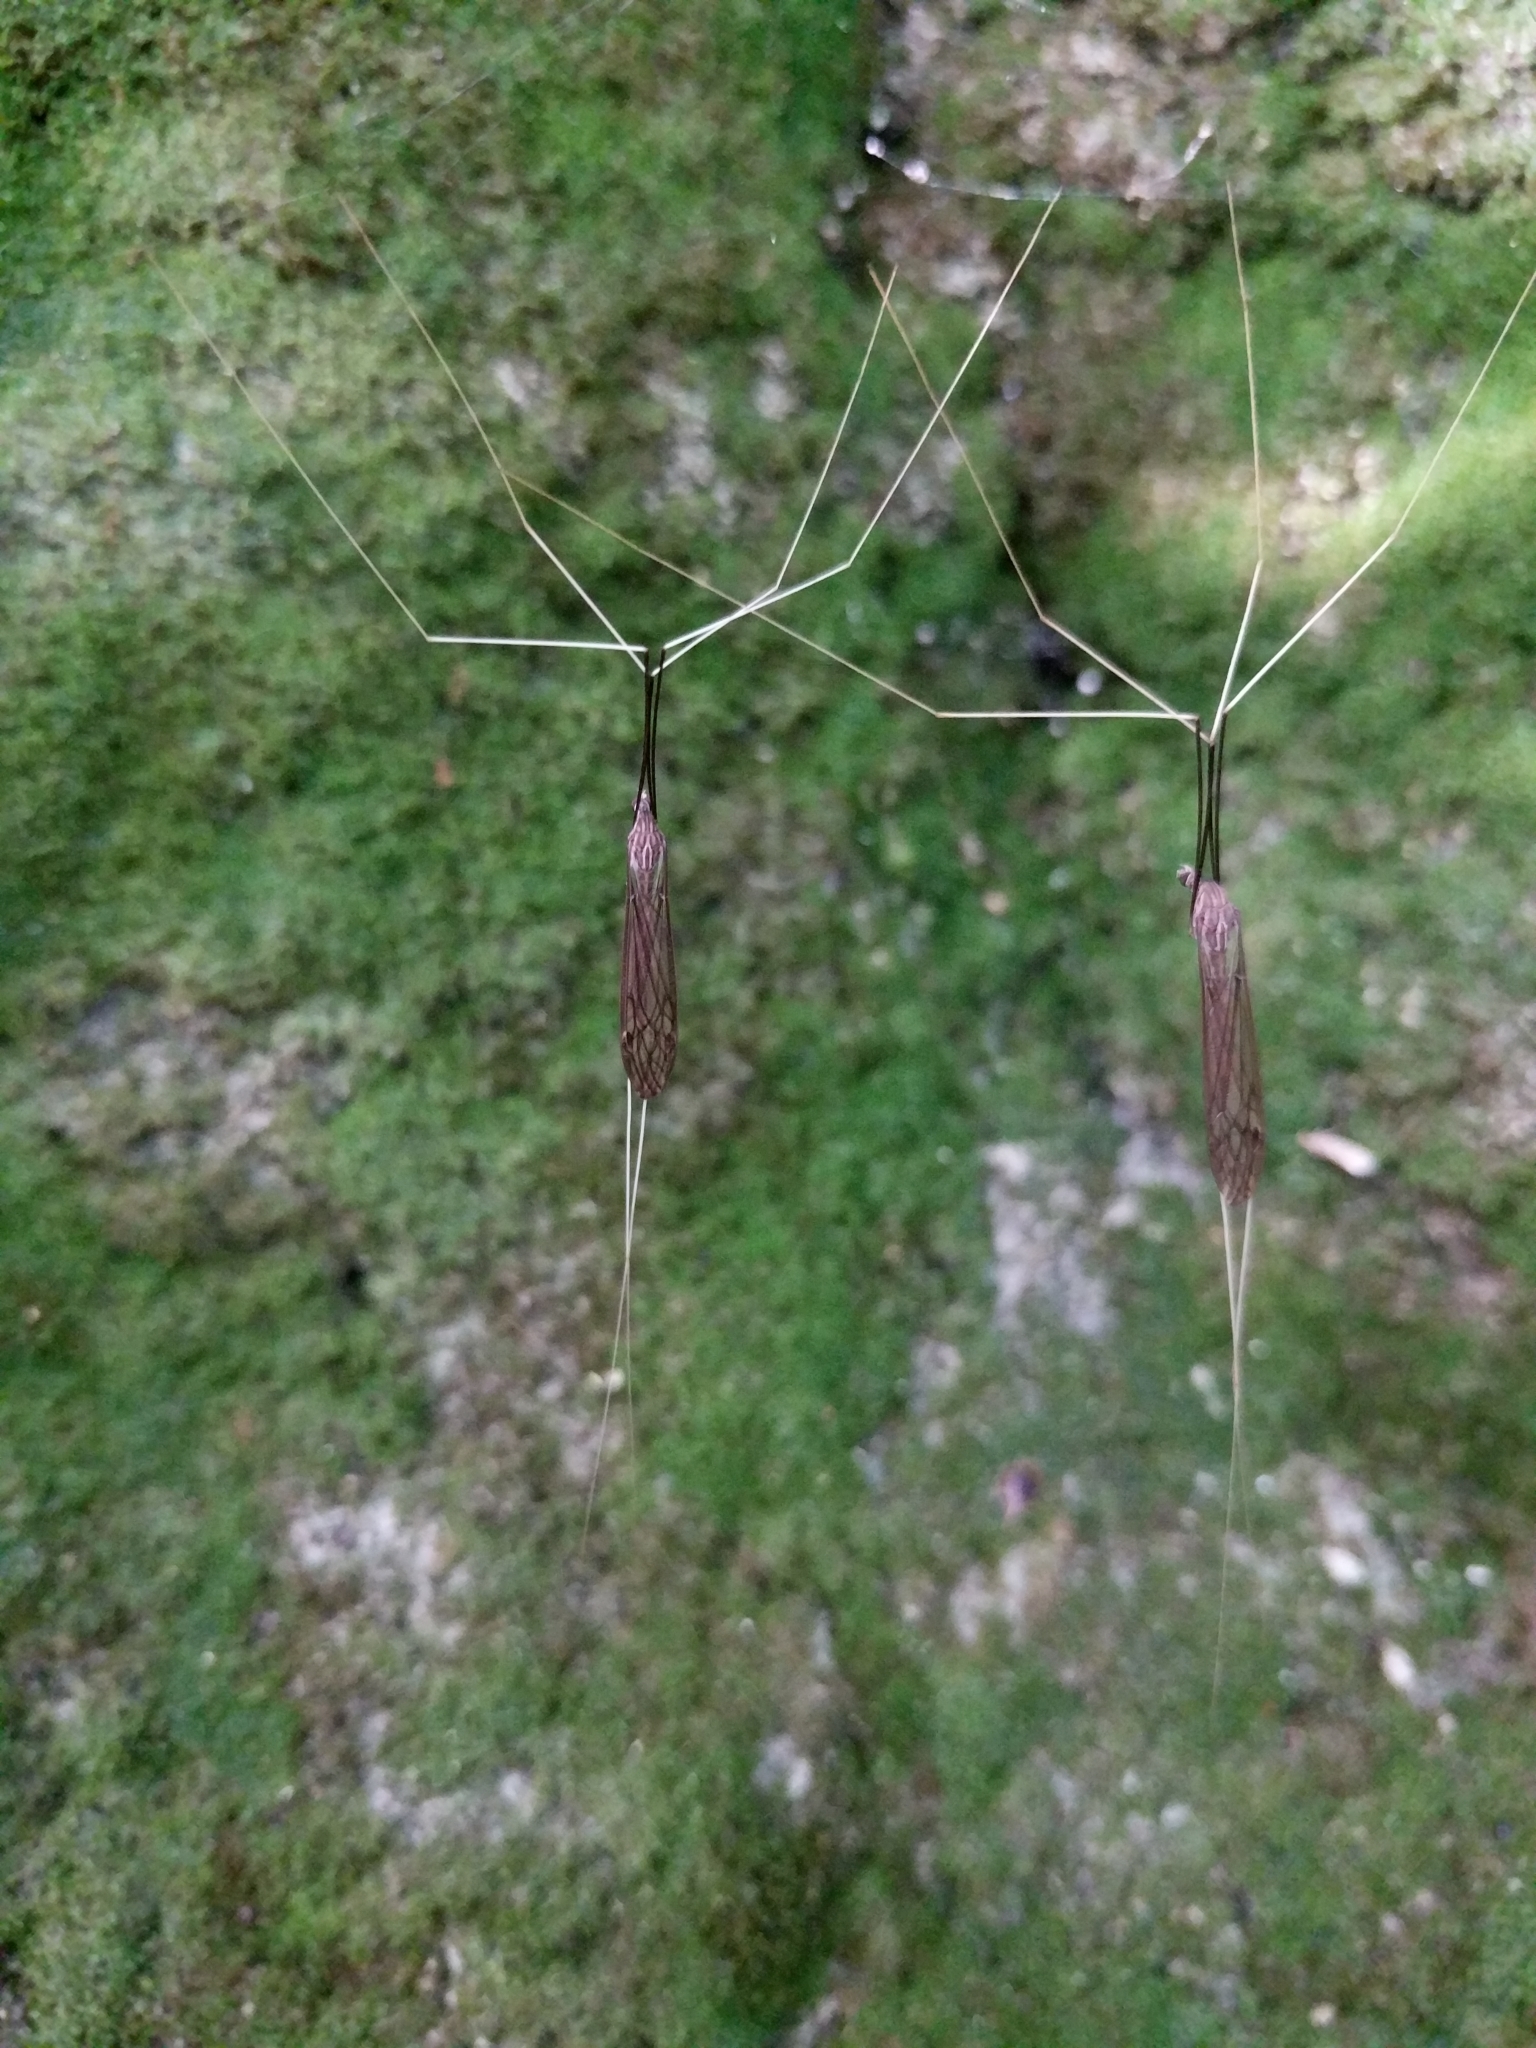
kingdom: Animalia
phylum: Arthropoda
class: Insecta
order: Diptera
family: Tipulidae
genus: Brachypremna
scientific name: Brachypremna dispellens
